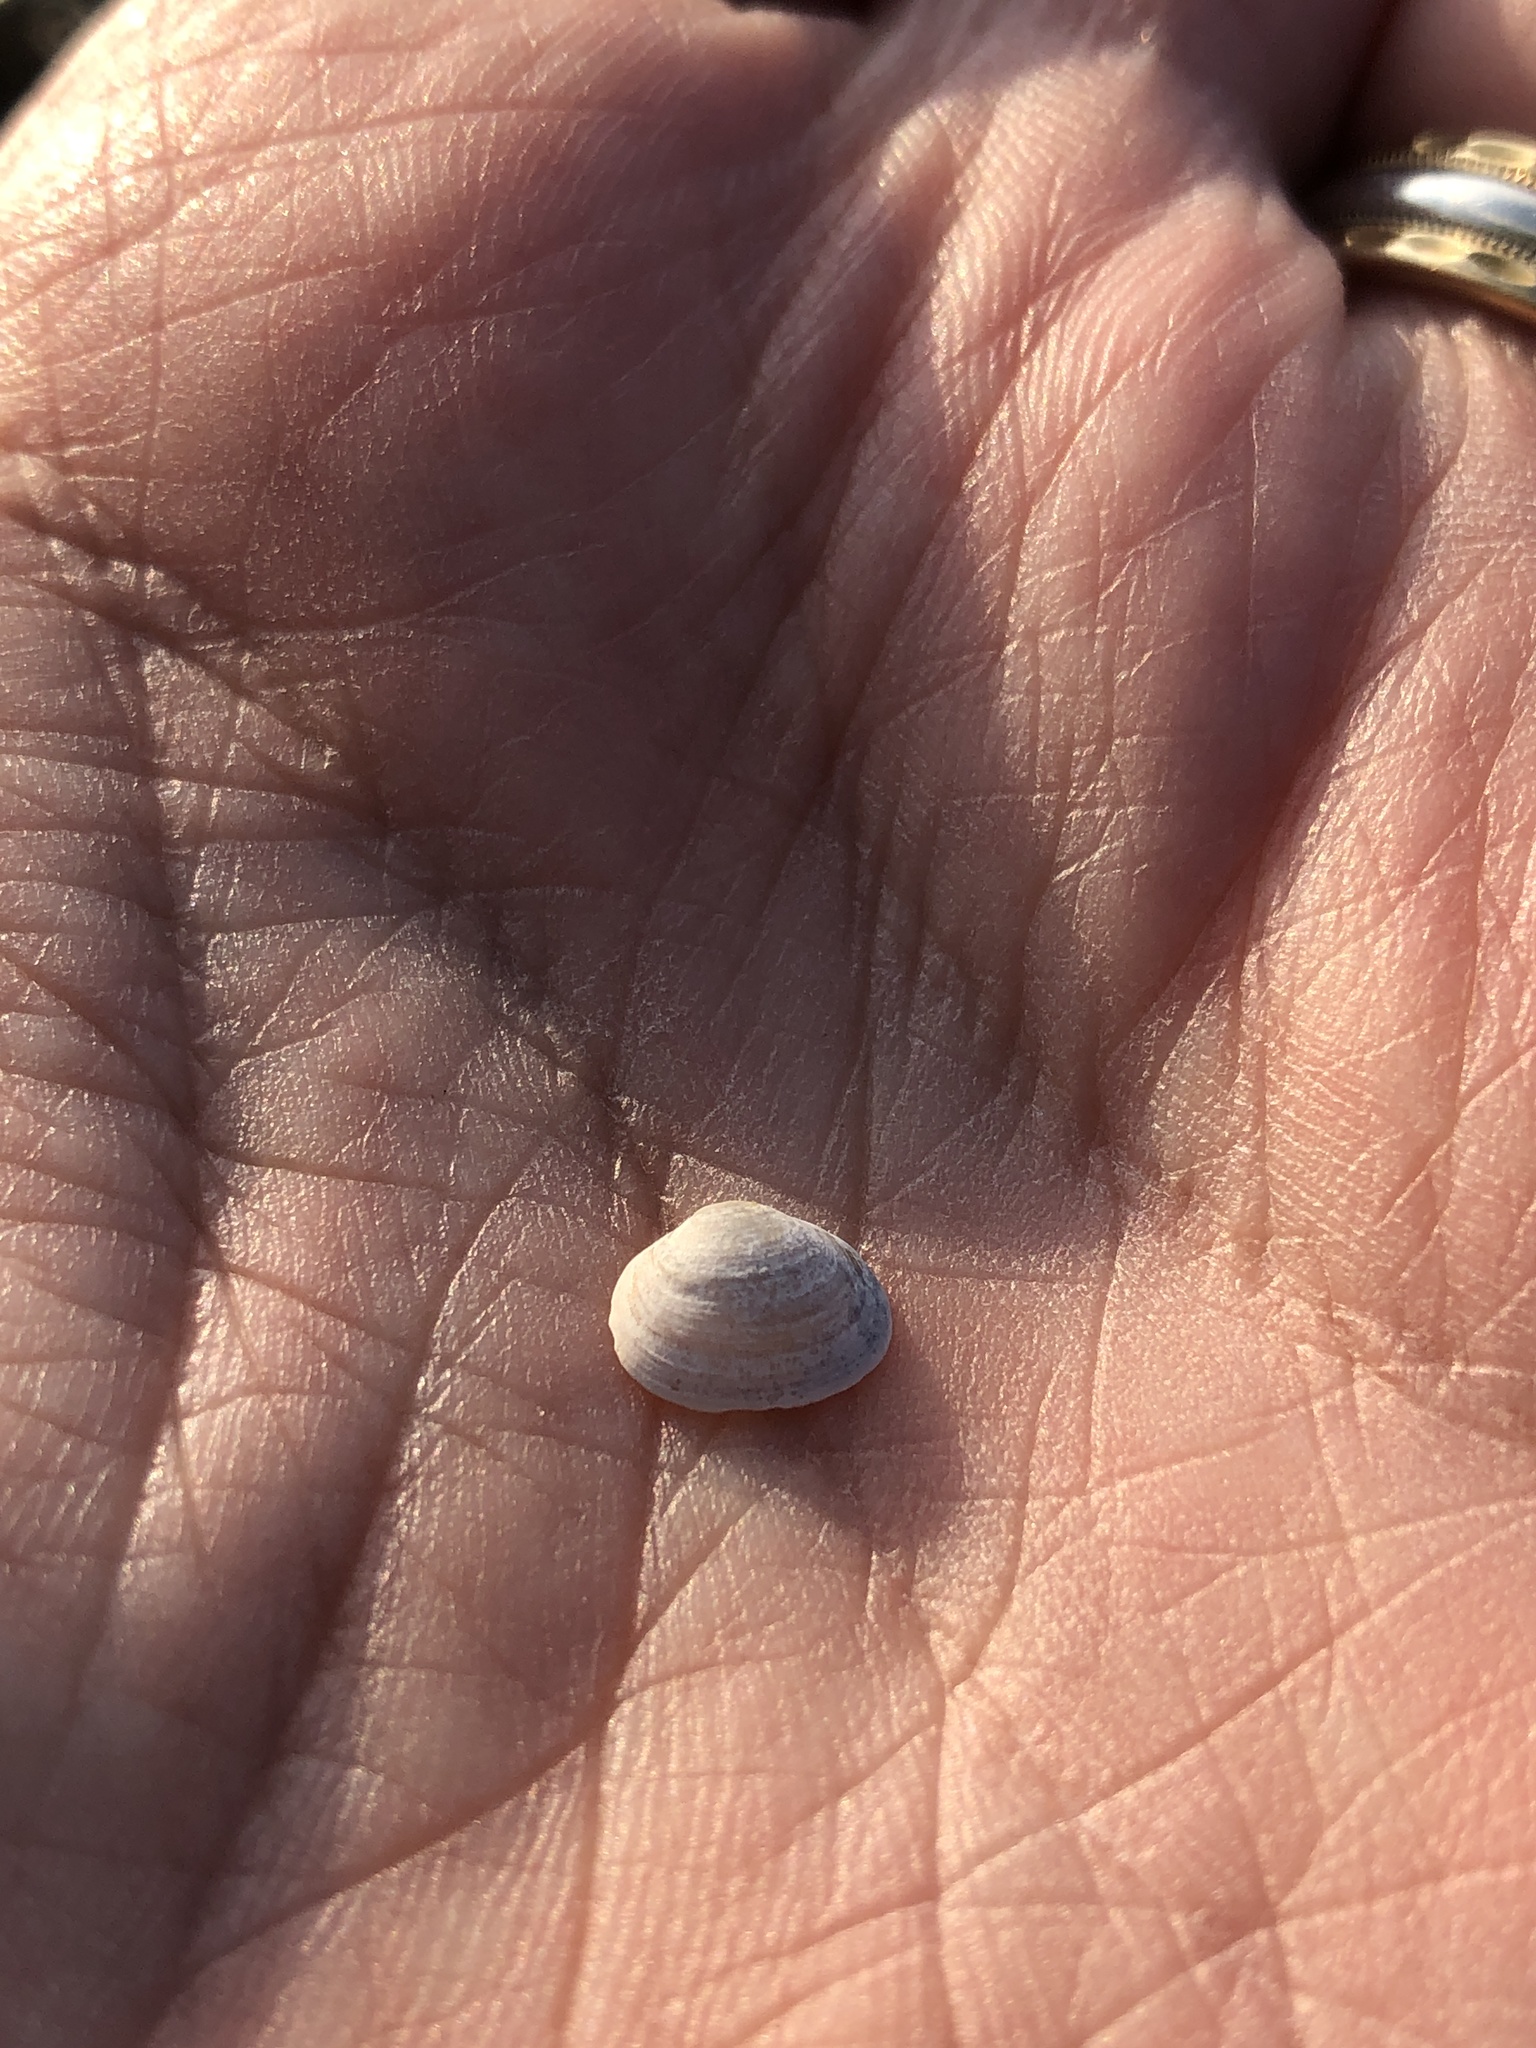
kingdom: Animalia
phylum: Mollusca
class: Bivalvia
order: Sphaeriida
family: Sphaeriidae
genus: Sphaerium
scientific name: Sphaerium striatinum
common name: Striated fingernailclam
